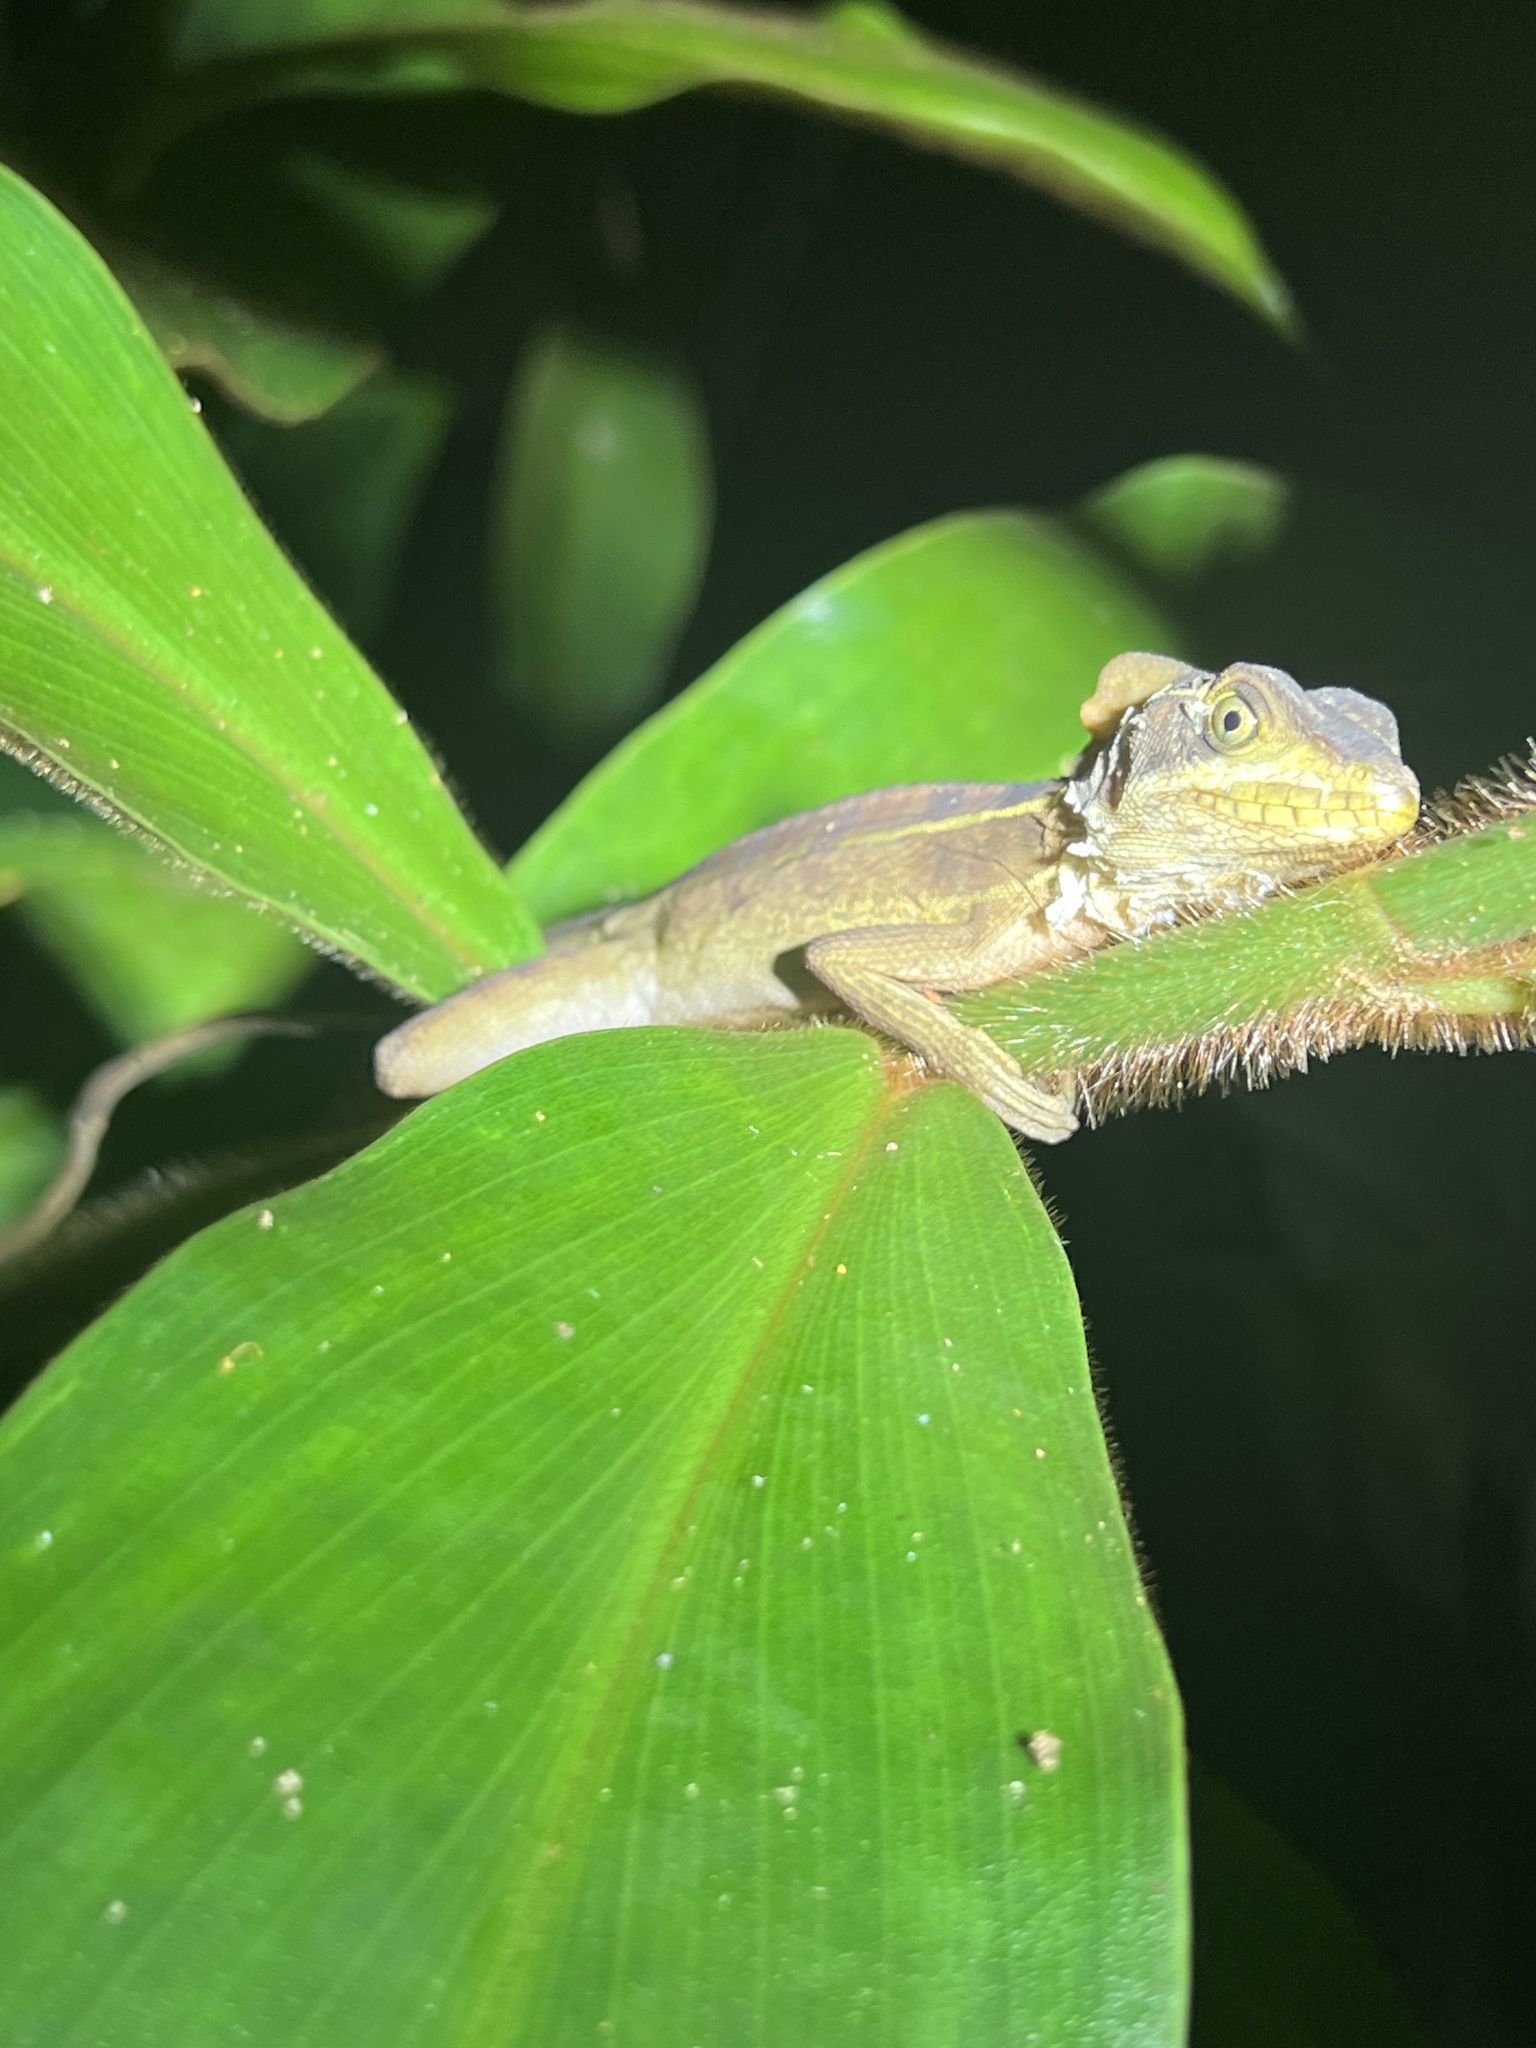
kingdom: Animalia
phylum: Chordata
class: Squamata
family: Corytophanidae
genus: Basiliscus
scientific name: Basiliscus vittatus
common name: Brown basilisk
